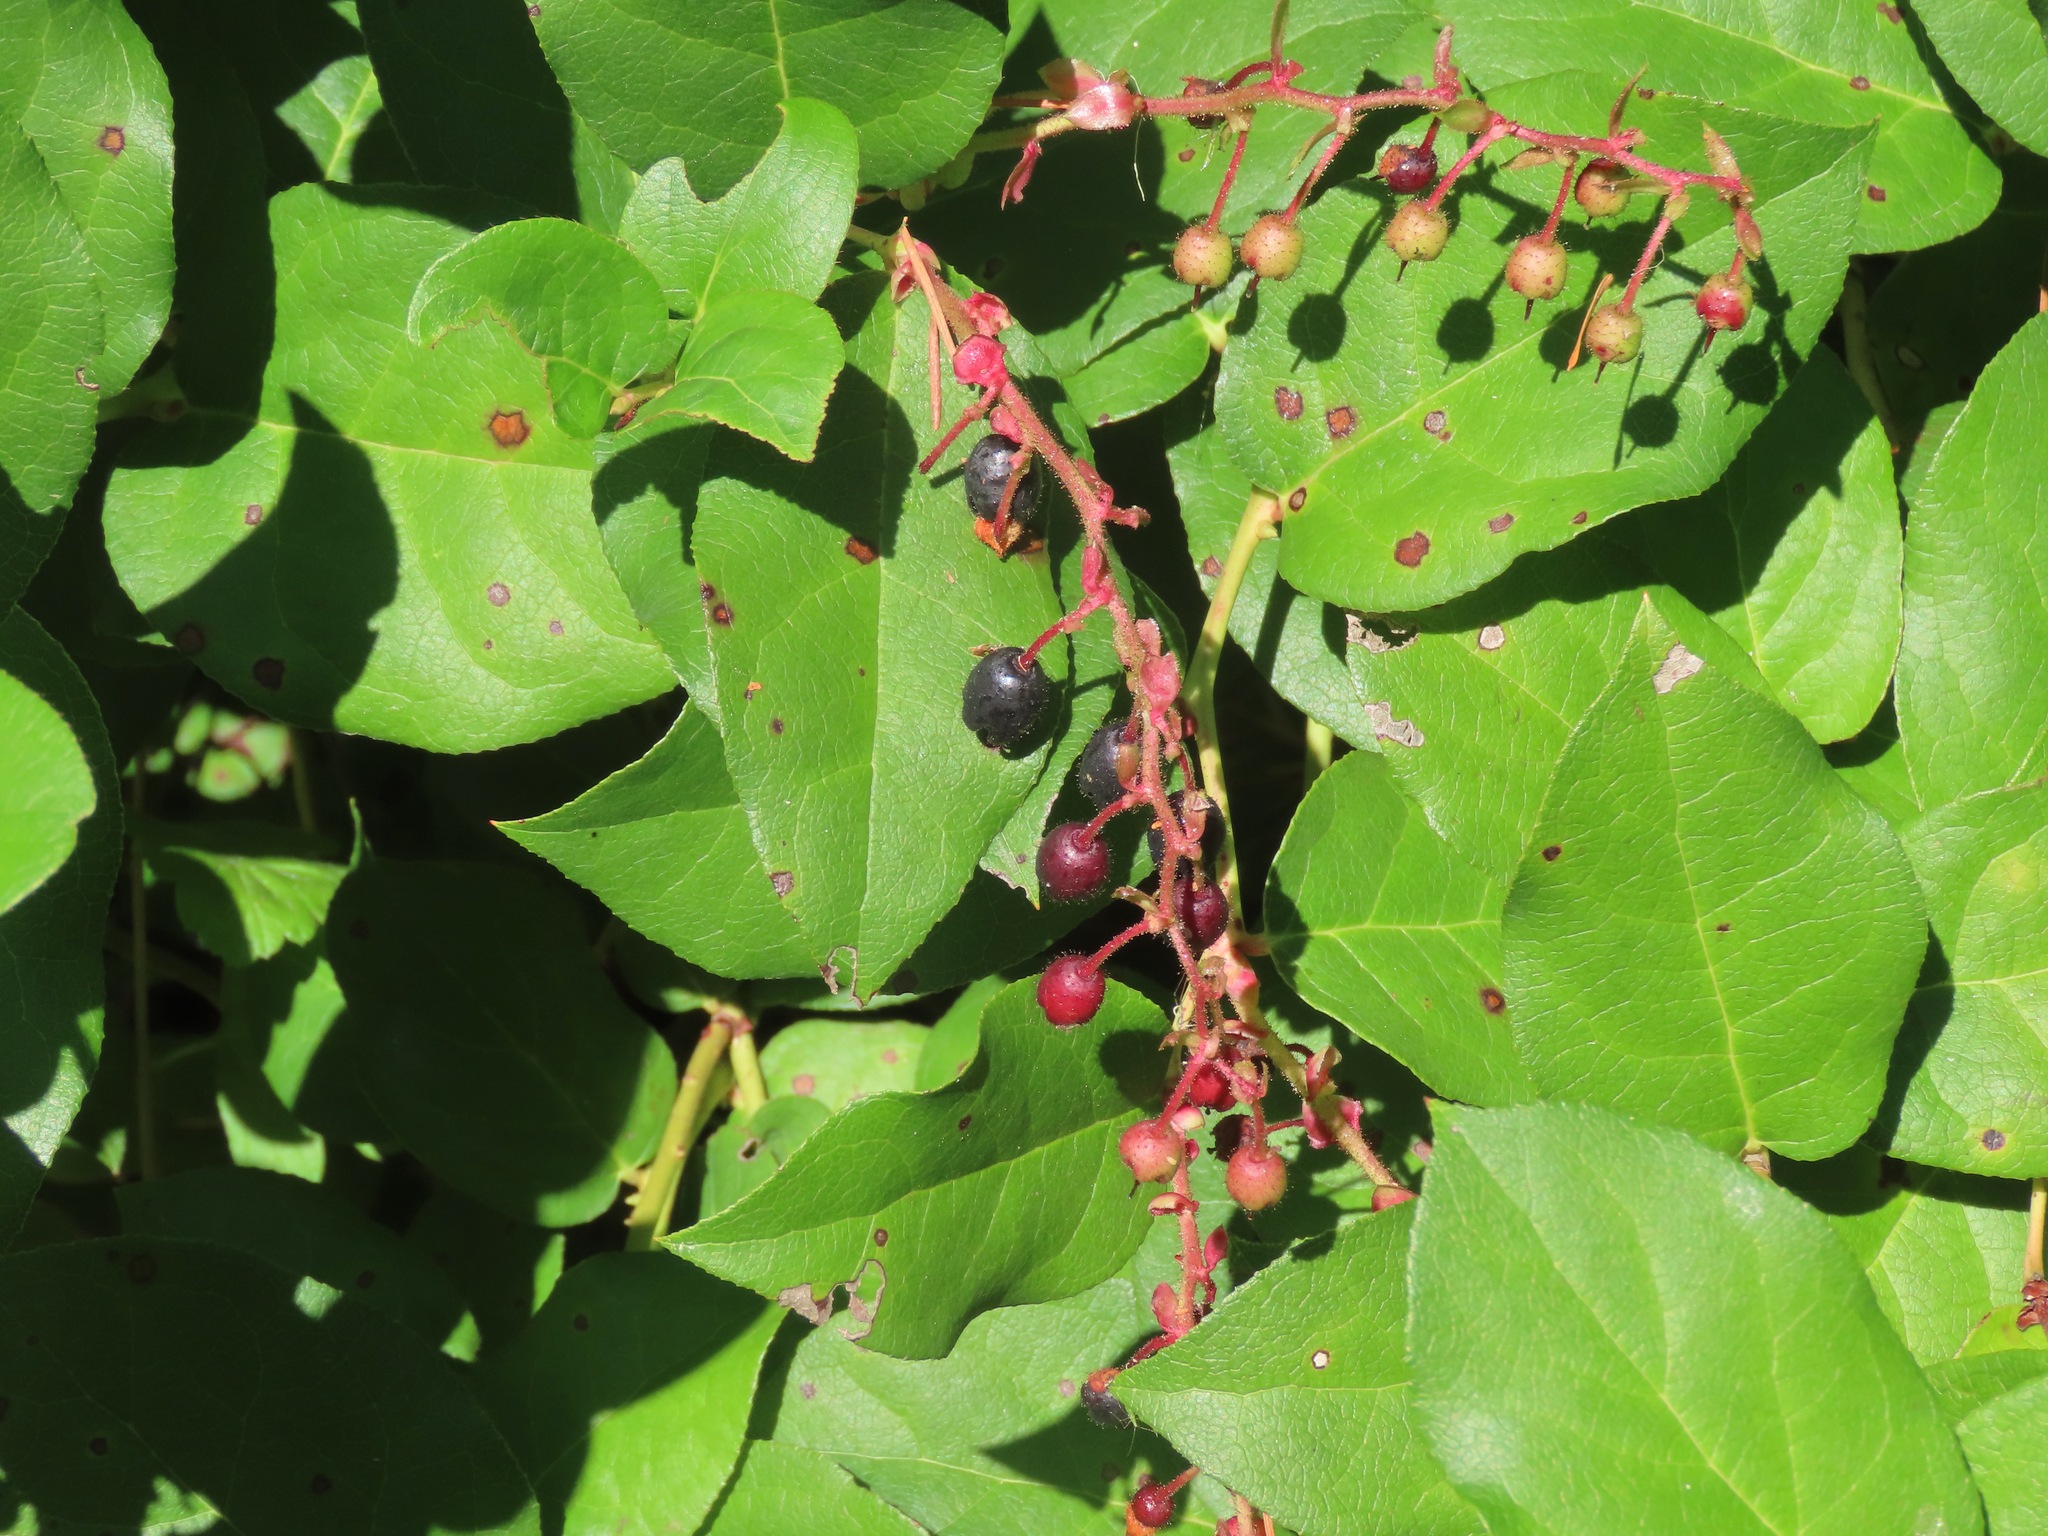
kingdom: Plantae
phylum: Tracheophyta
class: Magnoliopsida
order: Ericales
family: Ericaceae
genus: Gaultheria
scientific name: Gaultheria shallon
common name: Shallon
